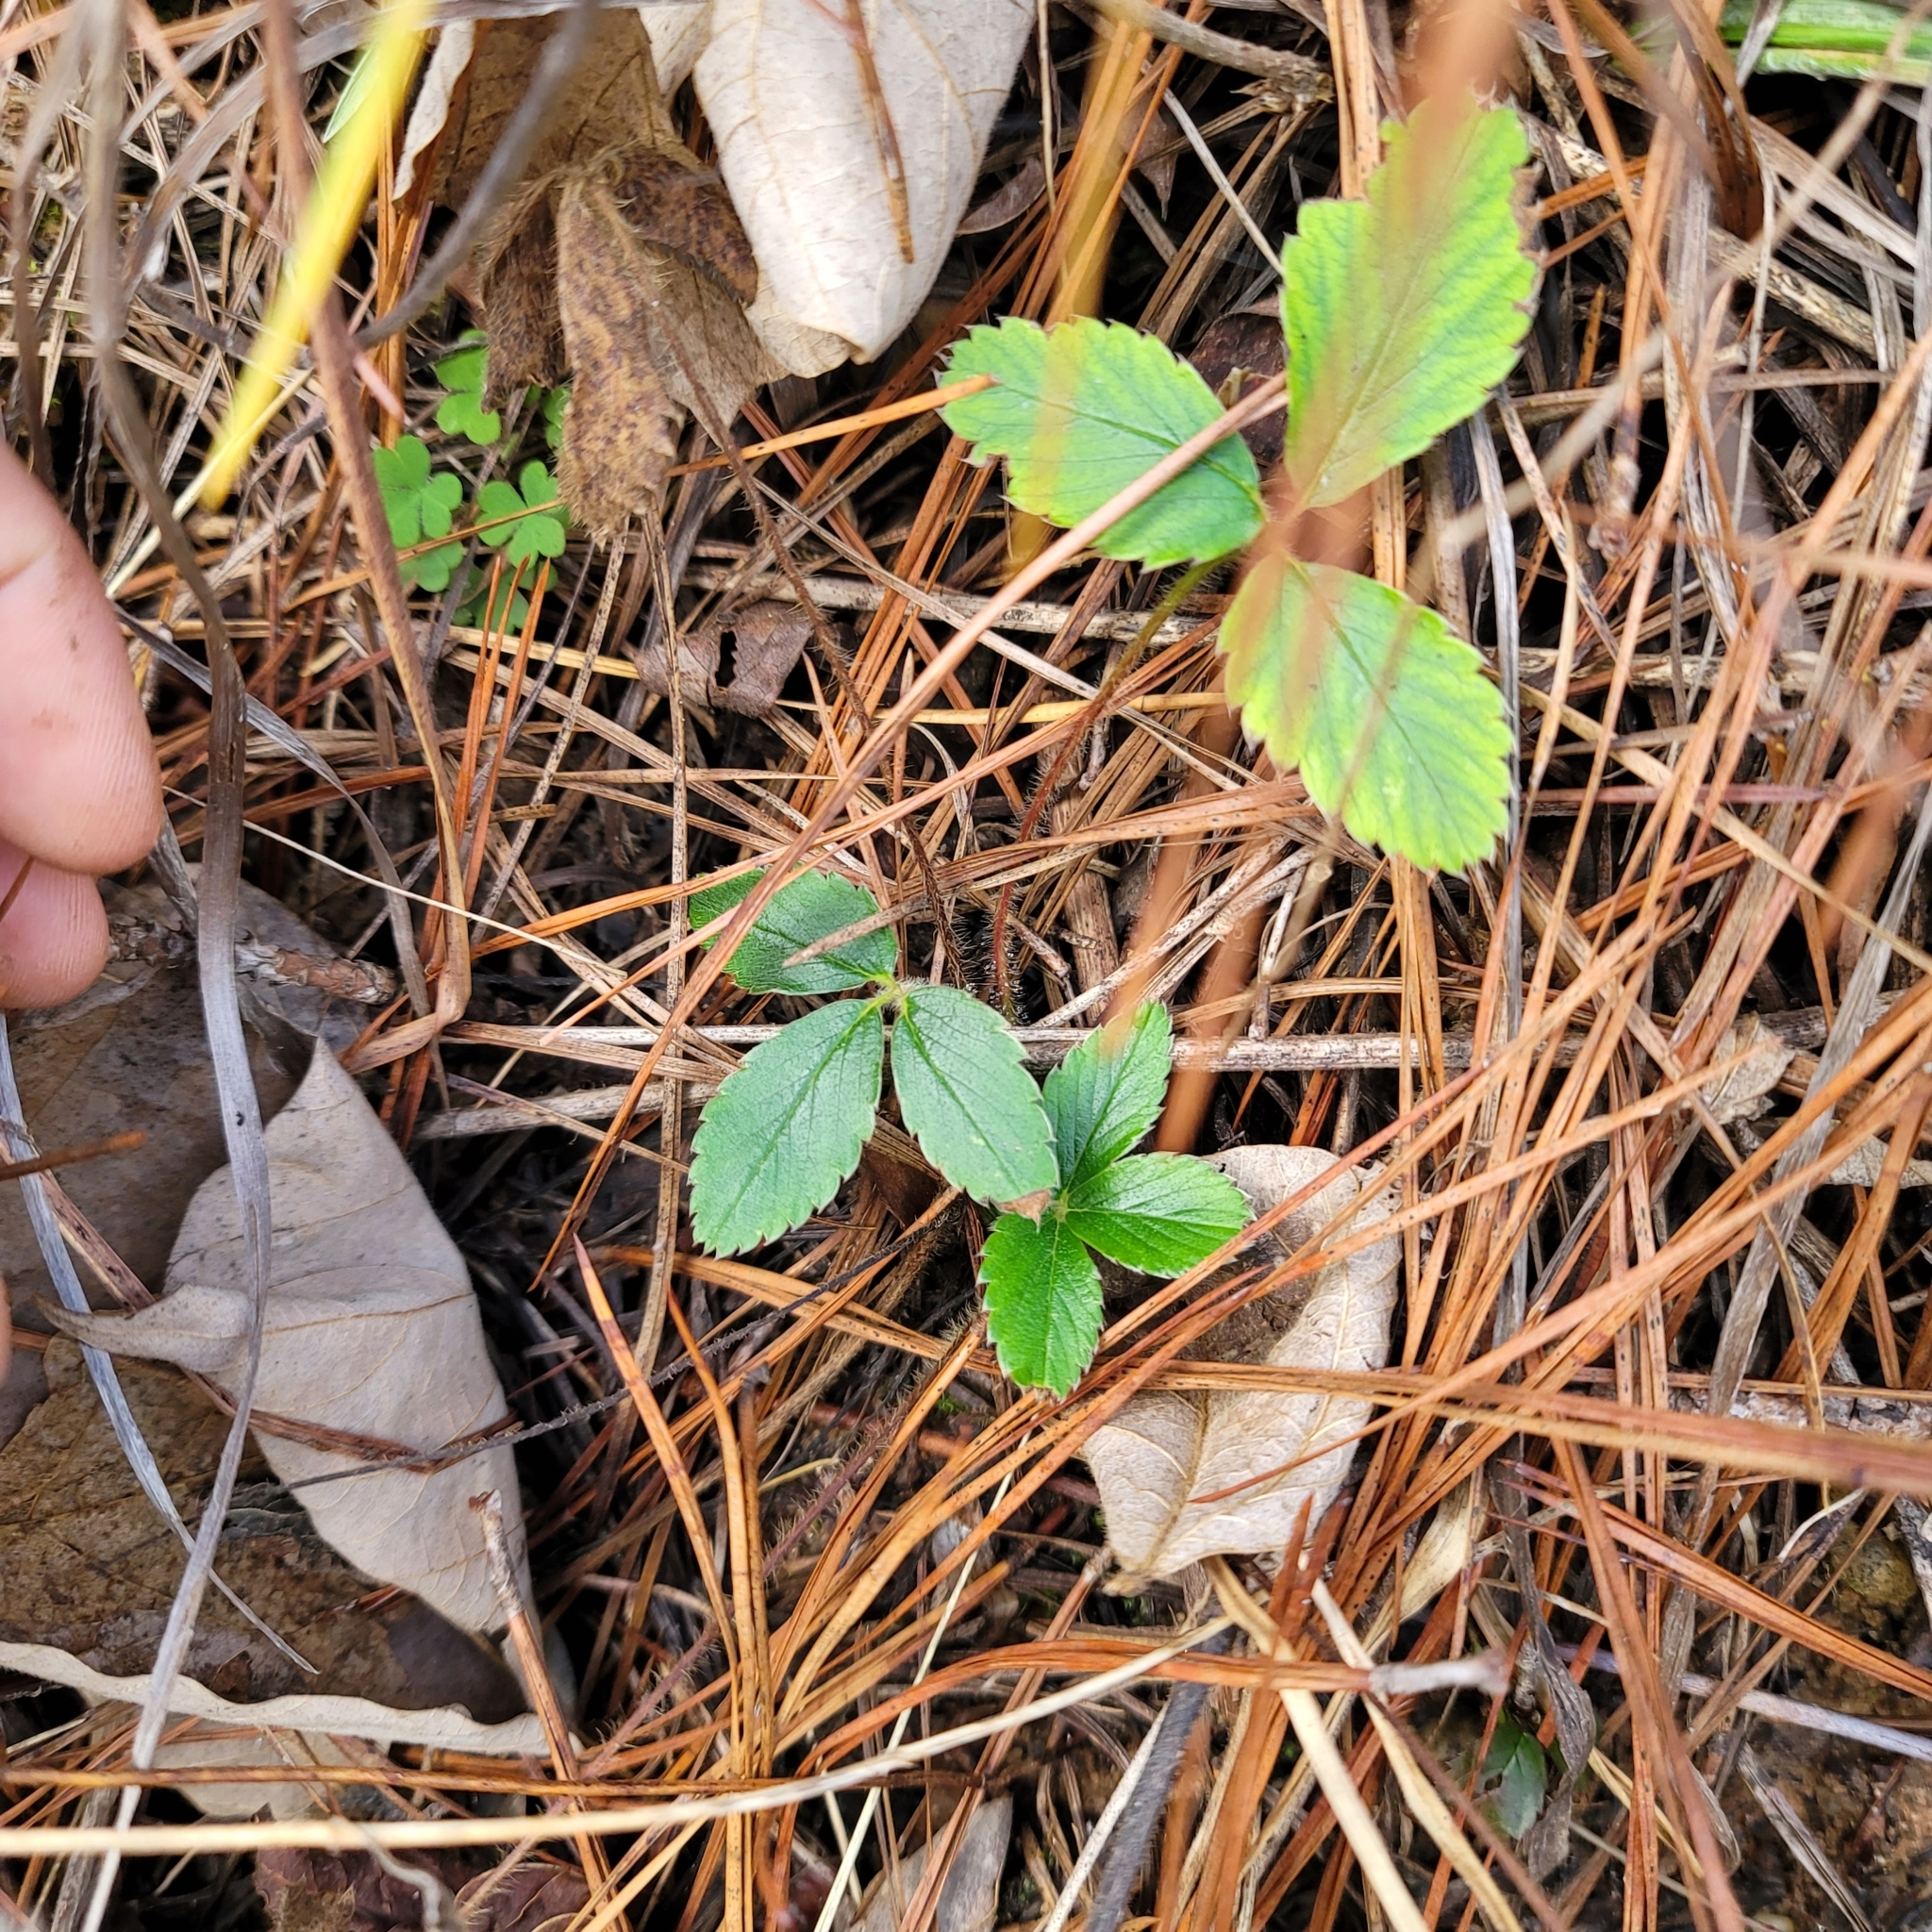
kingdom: Plantae
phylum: Tracheophyta
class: Magnoliopsida
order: Rosales
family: Rosaceae
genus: Fragaria
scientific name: Fragaria virginiana
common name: Thickleaved wild strawberry
